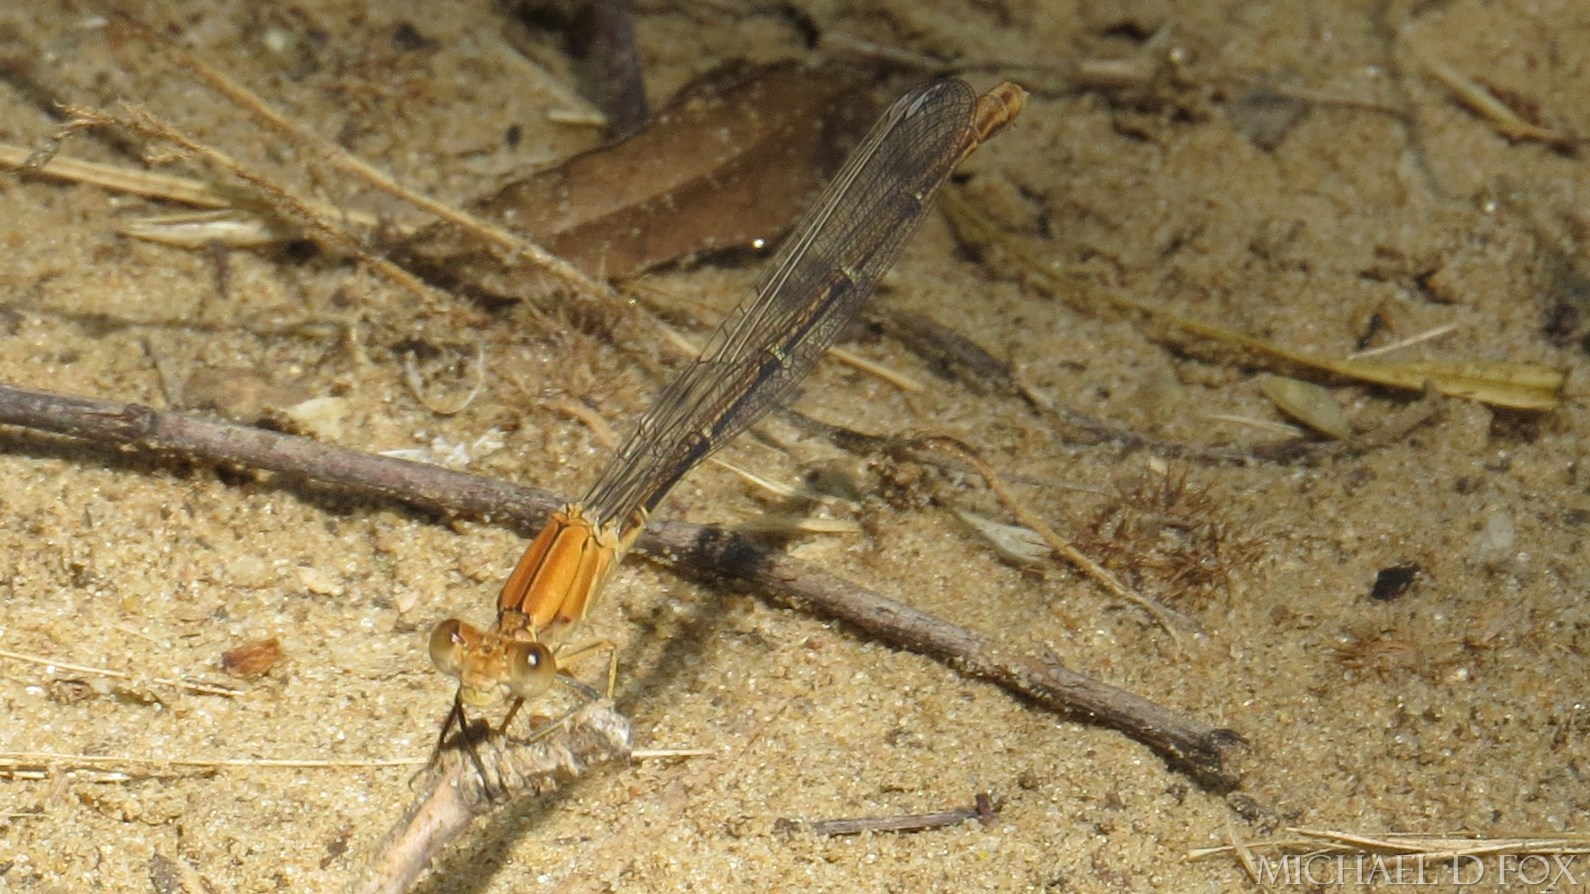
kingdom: Animalia
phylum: Arthropoda
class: Insecta
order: Odonata
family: Coenagrionidae
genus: Argia
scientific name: Argia moesta
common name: Powdered dancer
